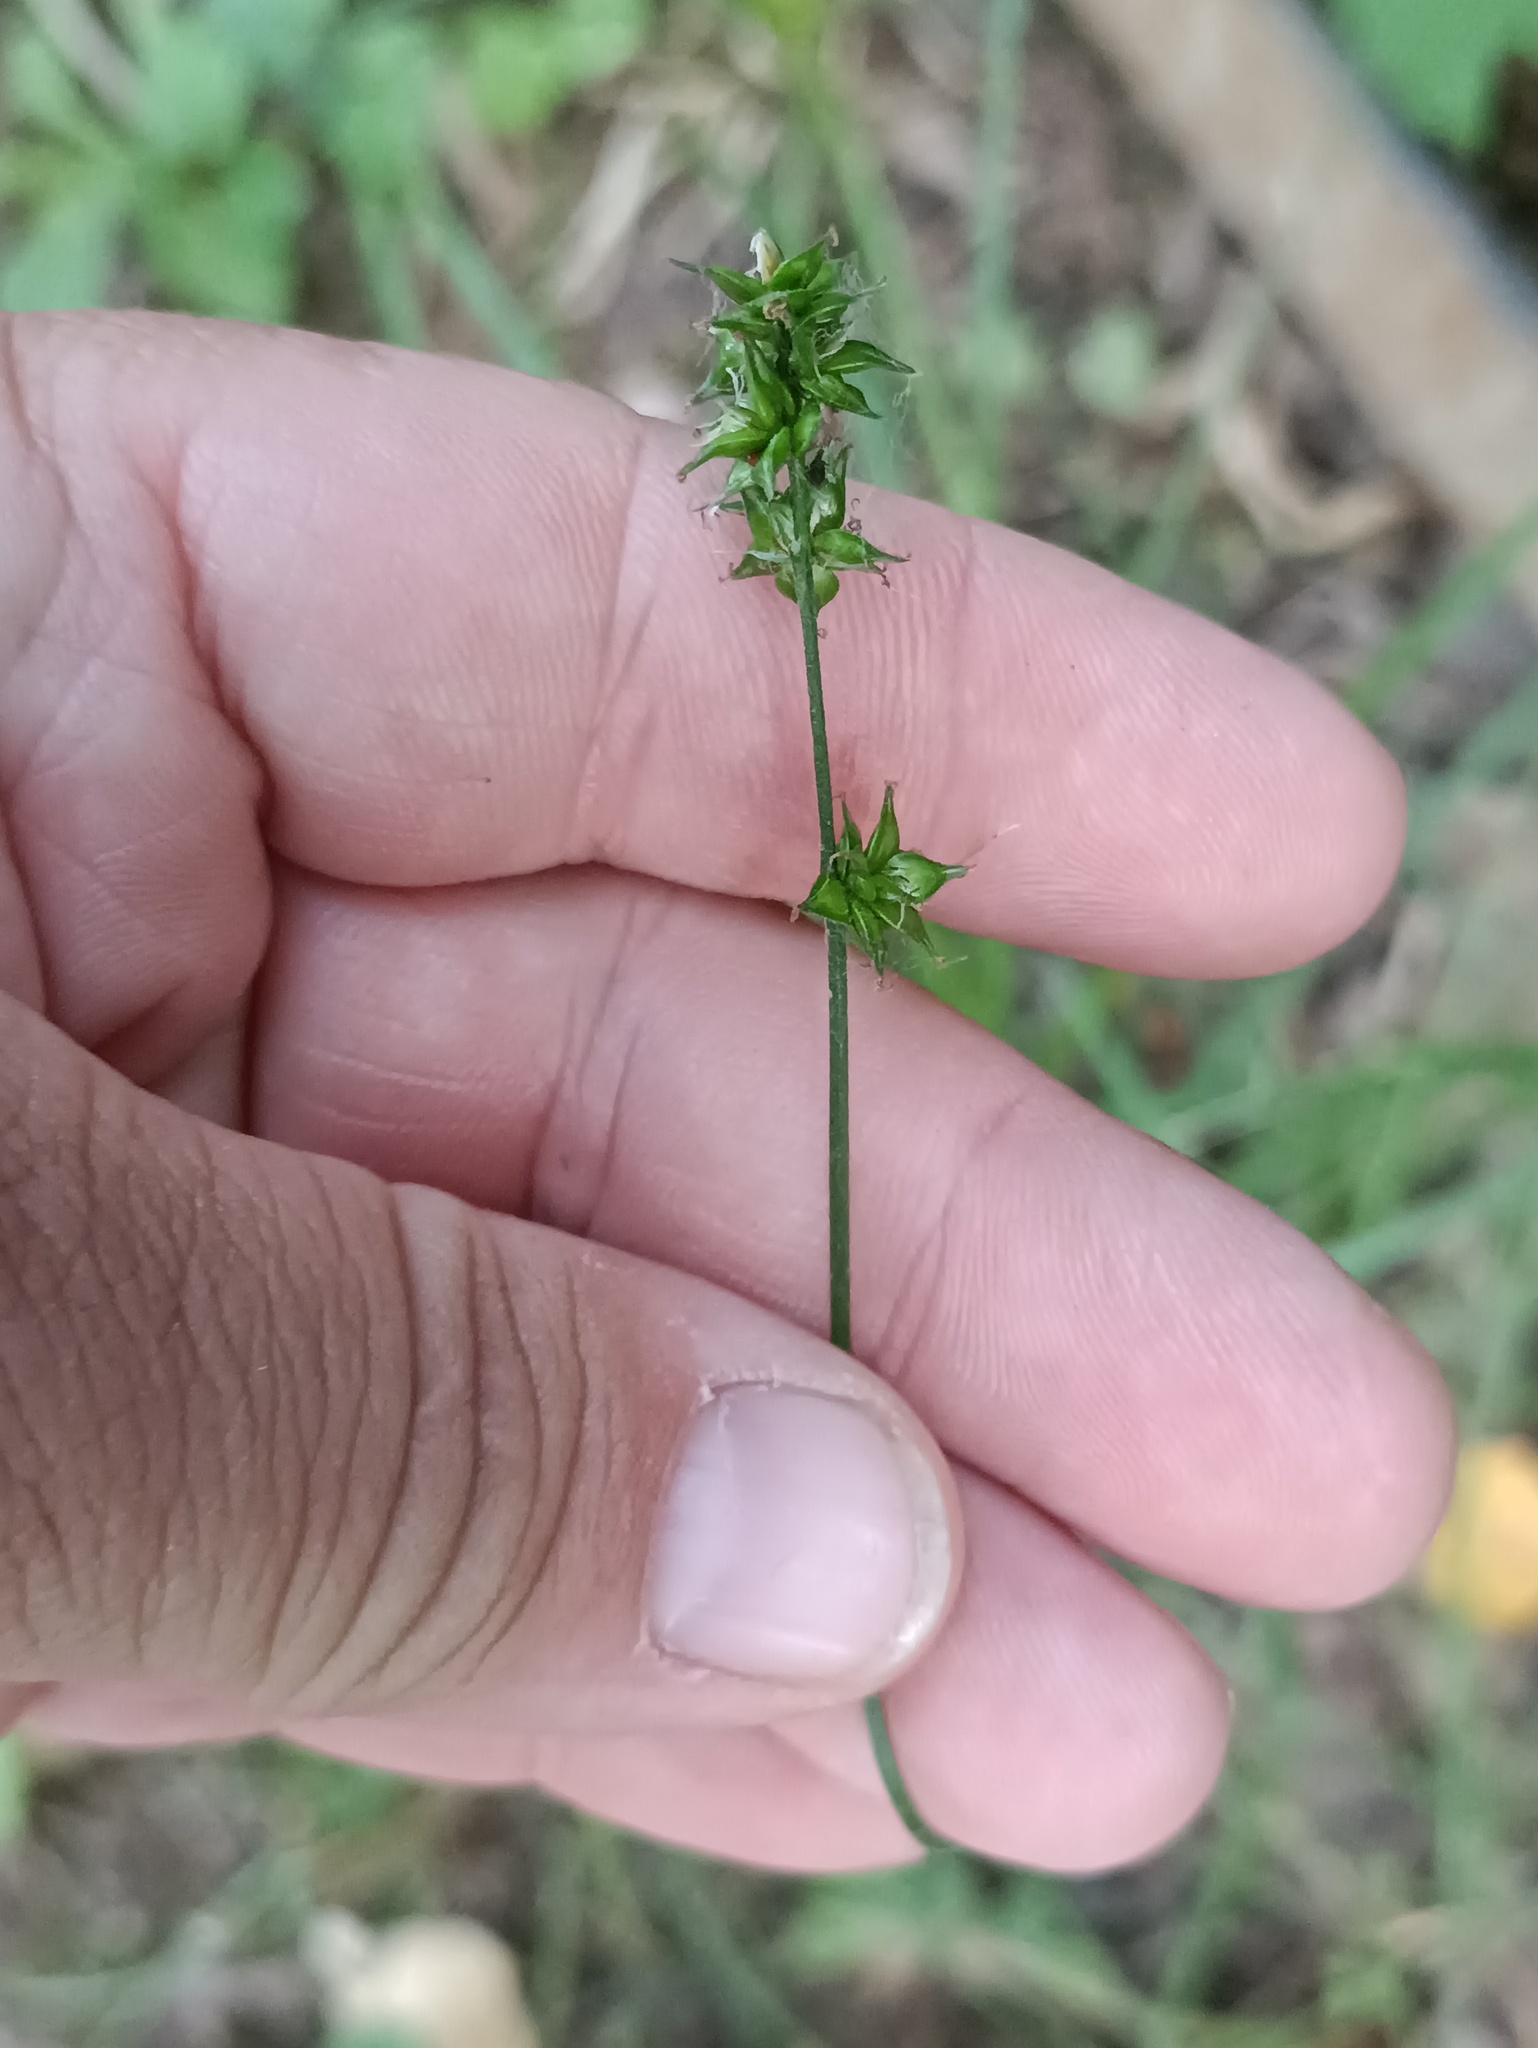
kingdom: Plantae
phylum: Tracheophyta
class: Liliopsida
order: Poales
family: Cyperaceae
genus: Carex
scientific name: Carex spicata
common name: Spiked sedge
